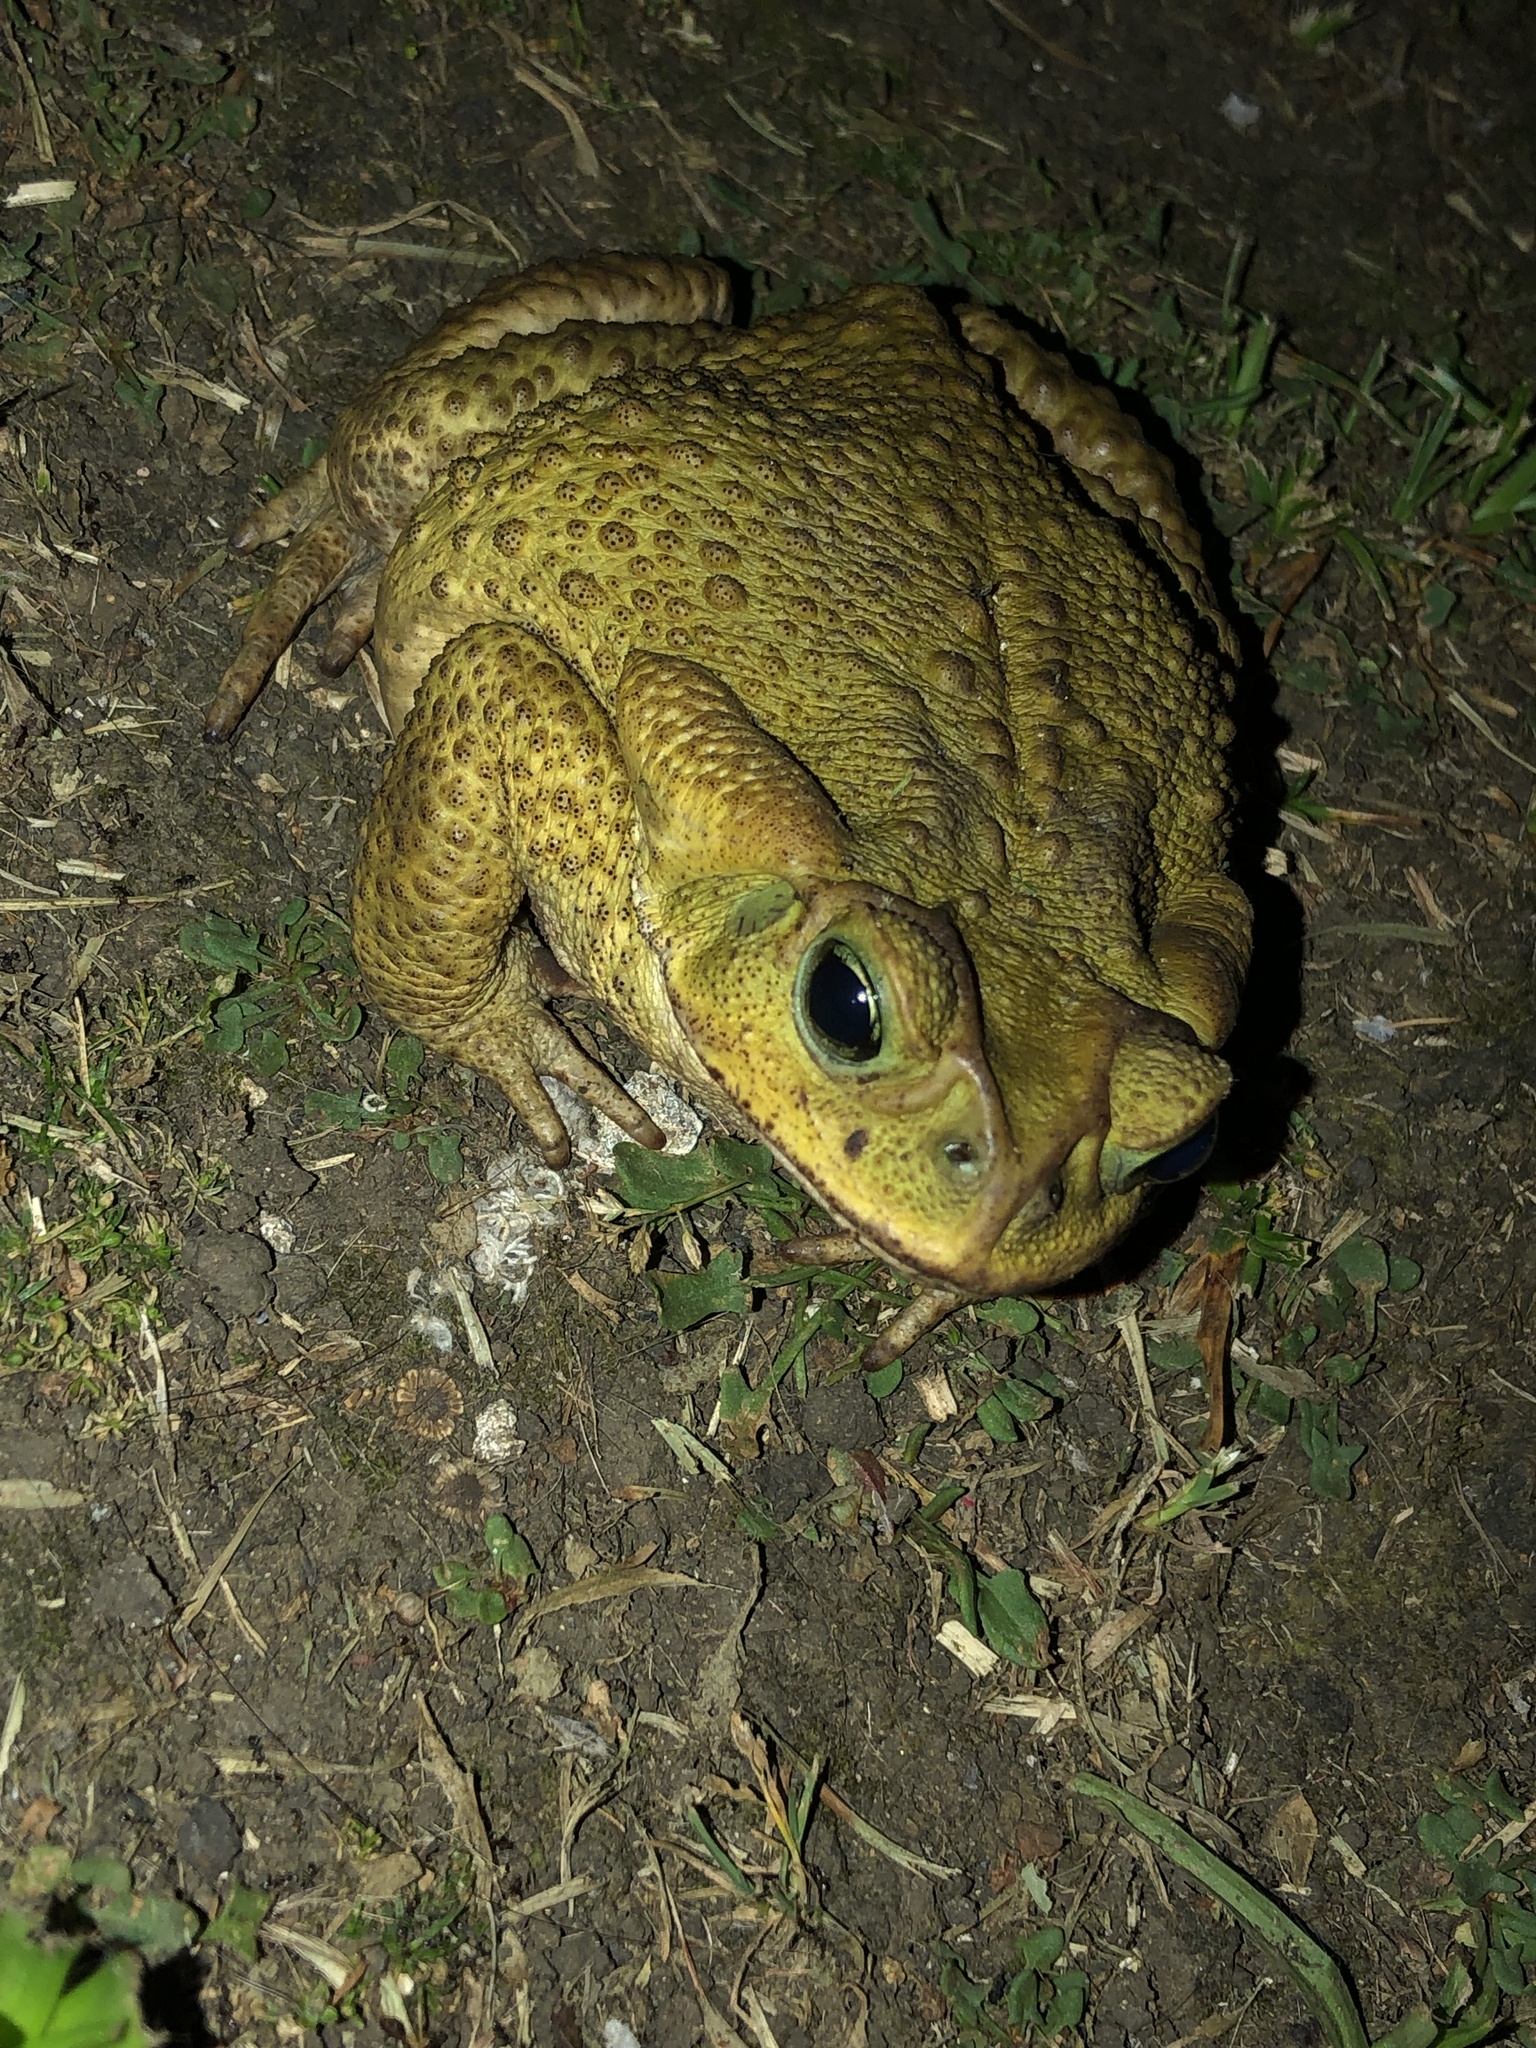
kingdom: Animalia
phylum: Chordata
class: Amphibia
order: Anura
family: Bufonidae
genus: Rhinella
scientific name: Rhinella icterica
